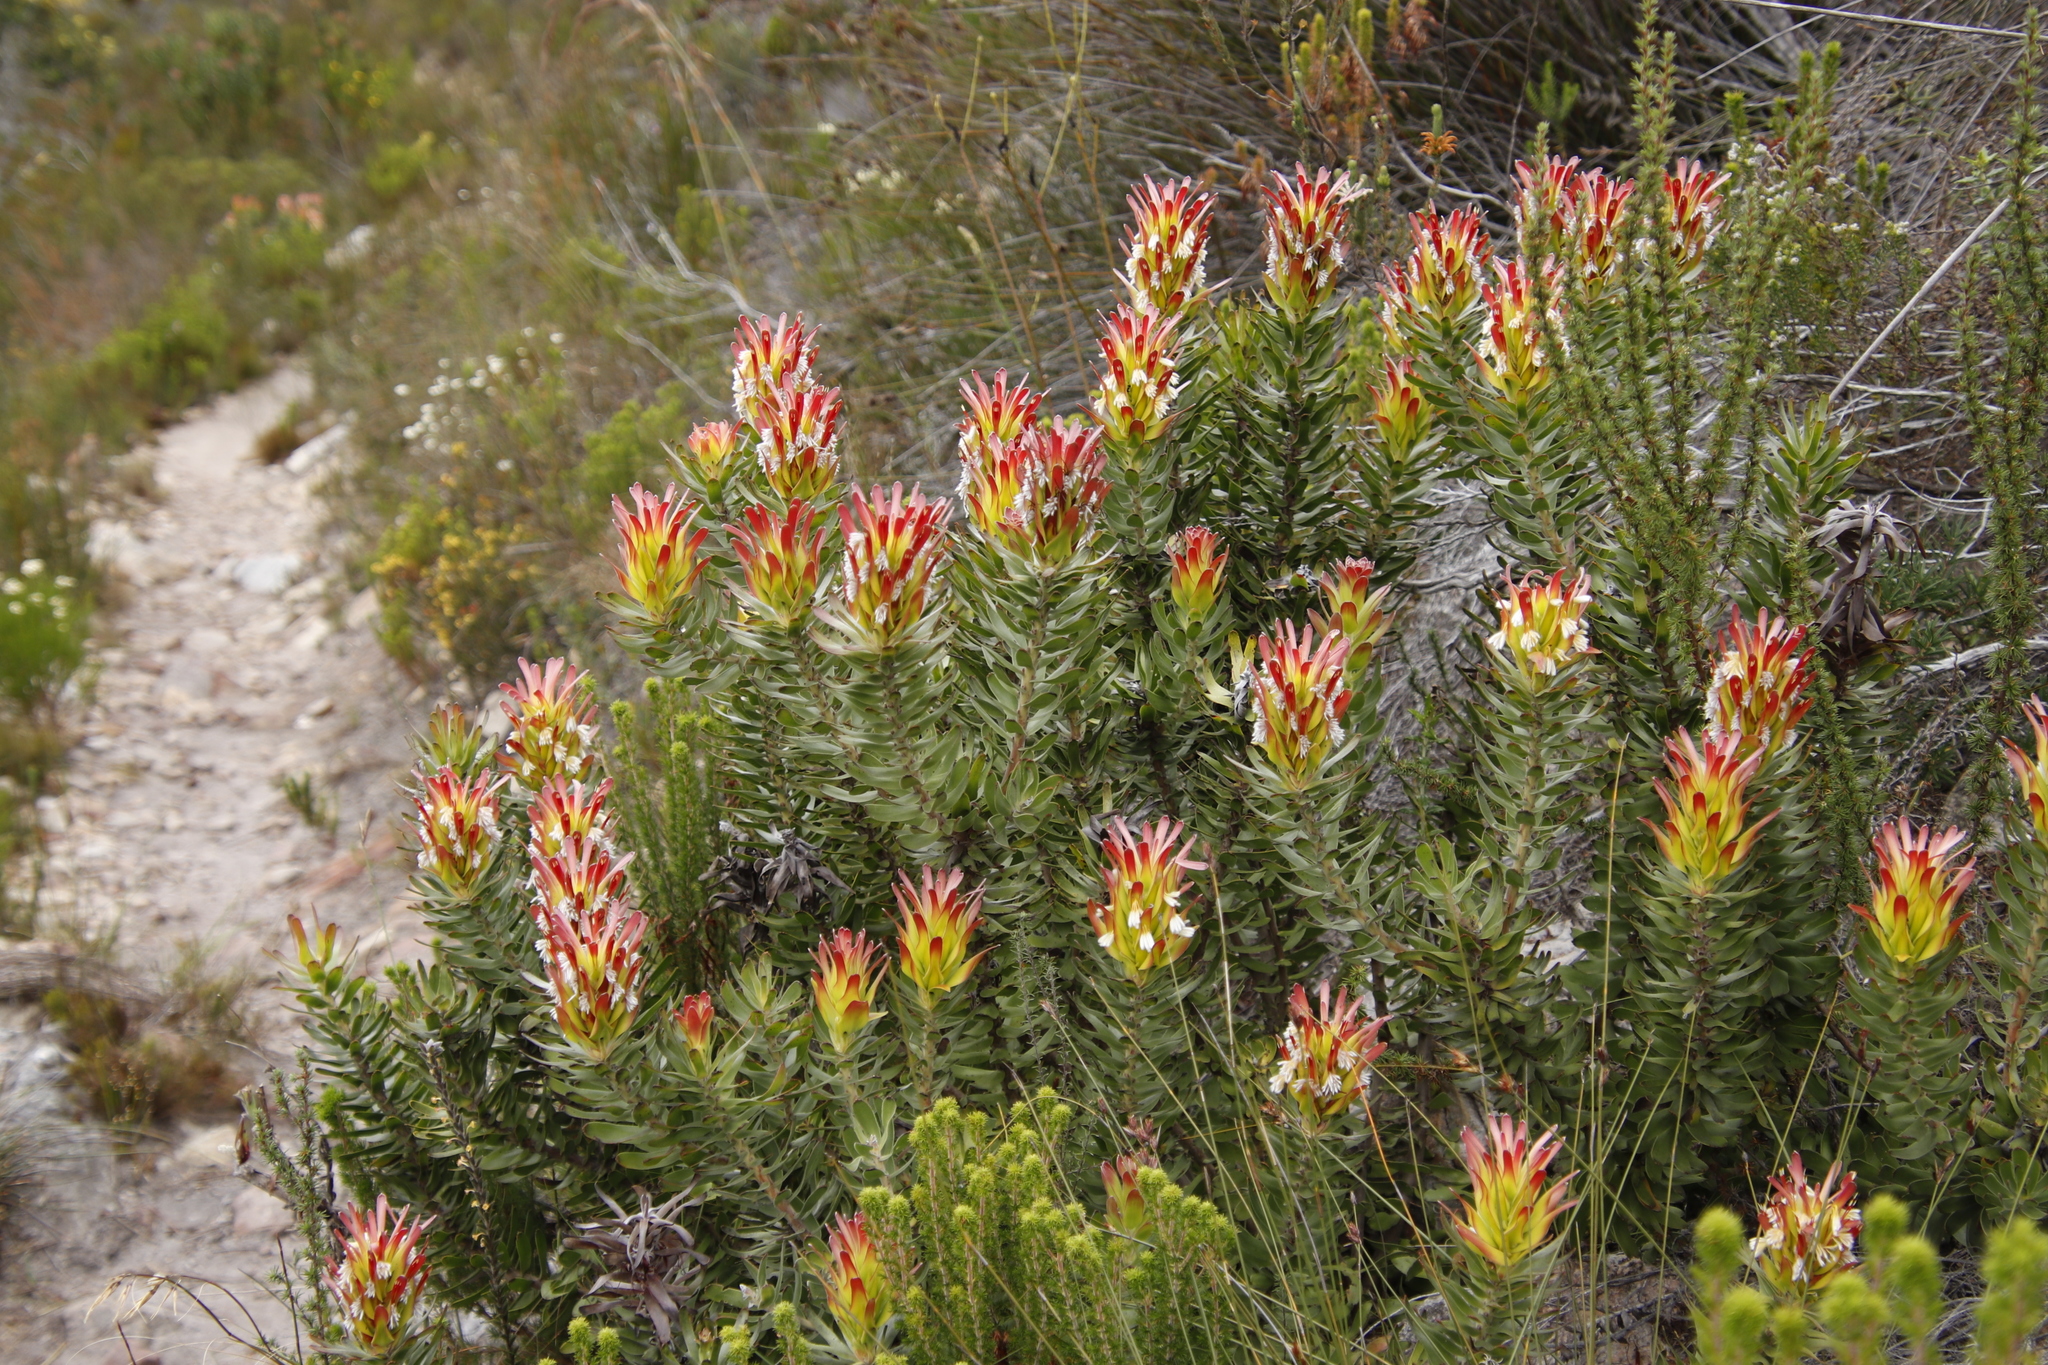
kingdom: Plantae
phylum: Tracheophyta
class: Magnoliopsida
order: Proteales
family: Proteaceae
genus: Mimetes
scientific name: Mimetes cucullatus
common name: Common pagoda
